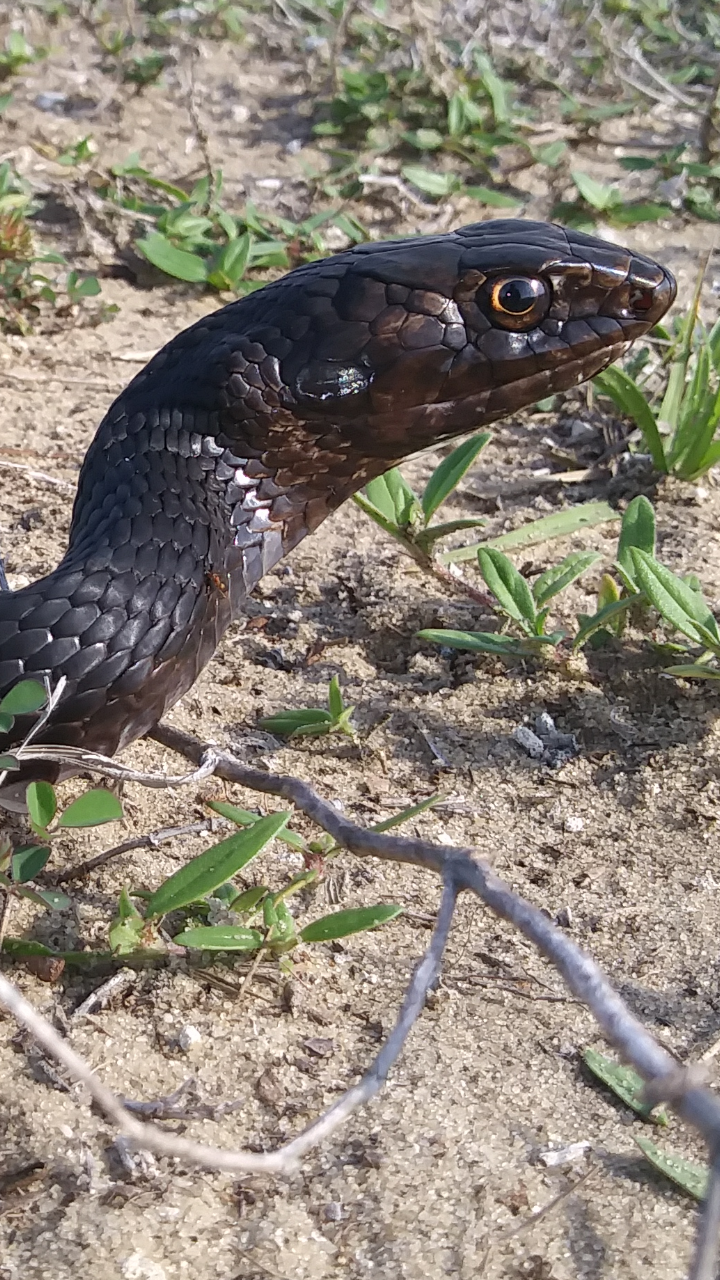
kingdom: Animalia
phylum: Chordata
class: Squamata
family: Colubridae
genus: Masticophis
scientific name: Masticophis flagellum
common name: Coachwhip
